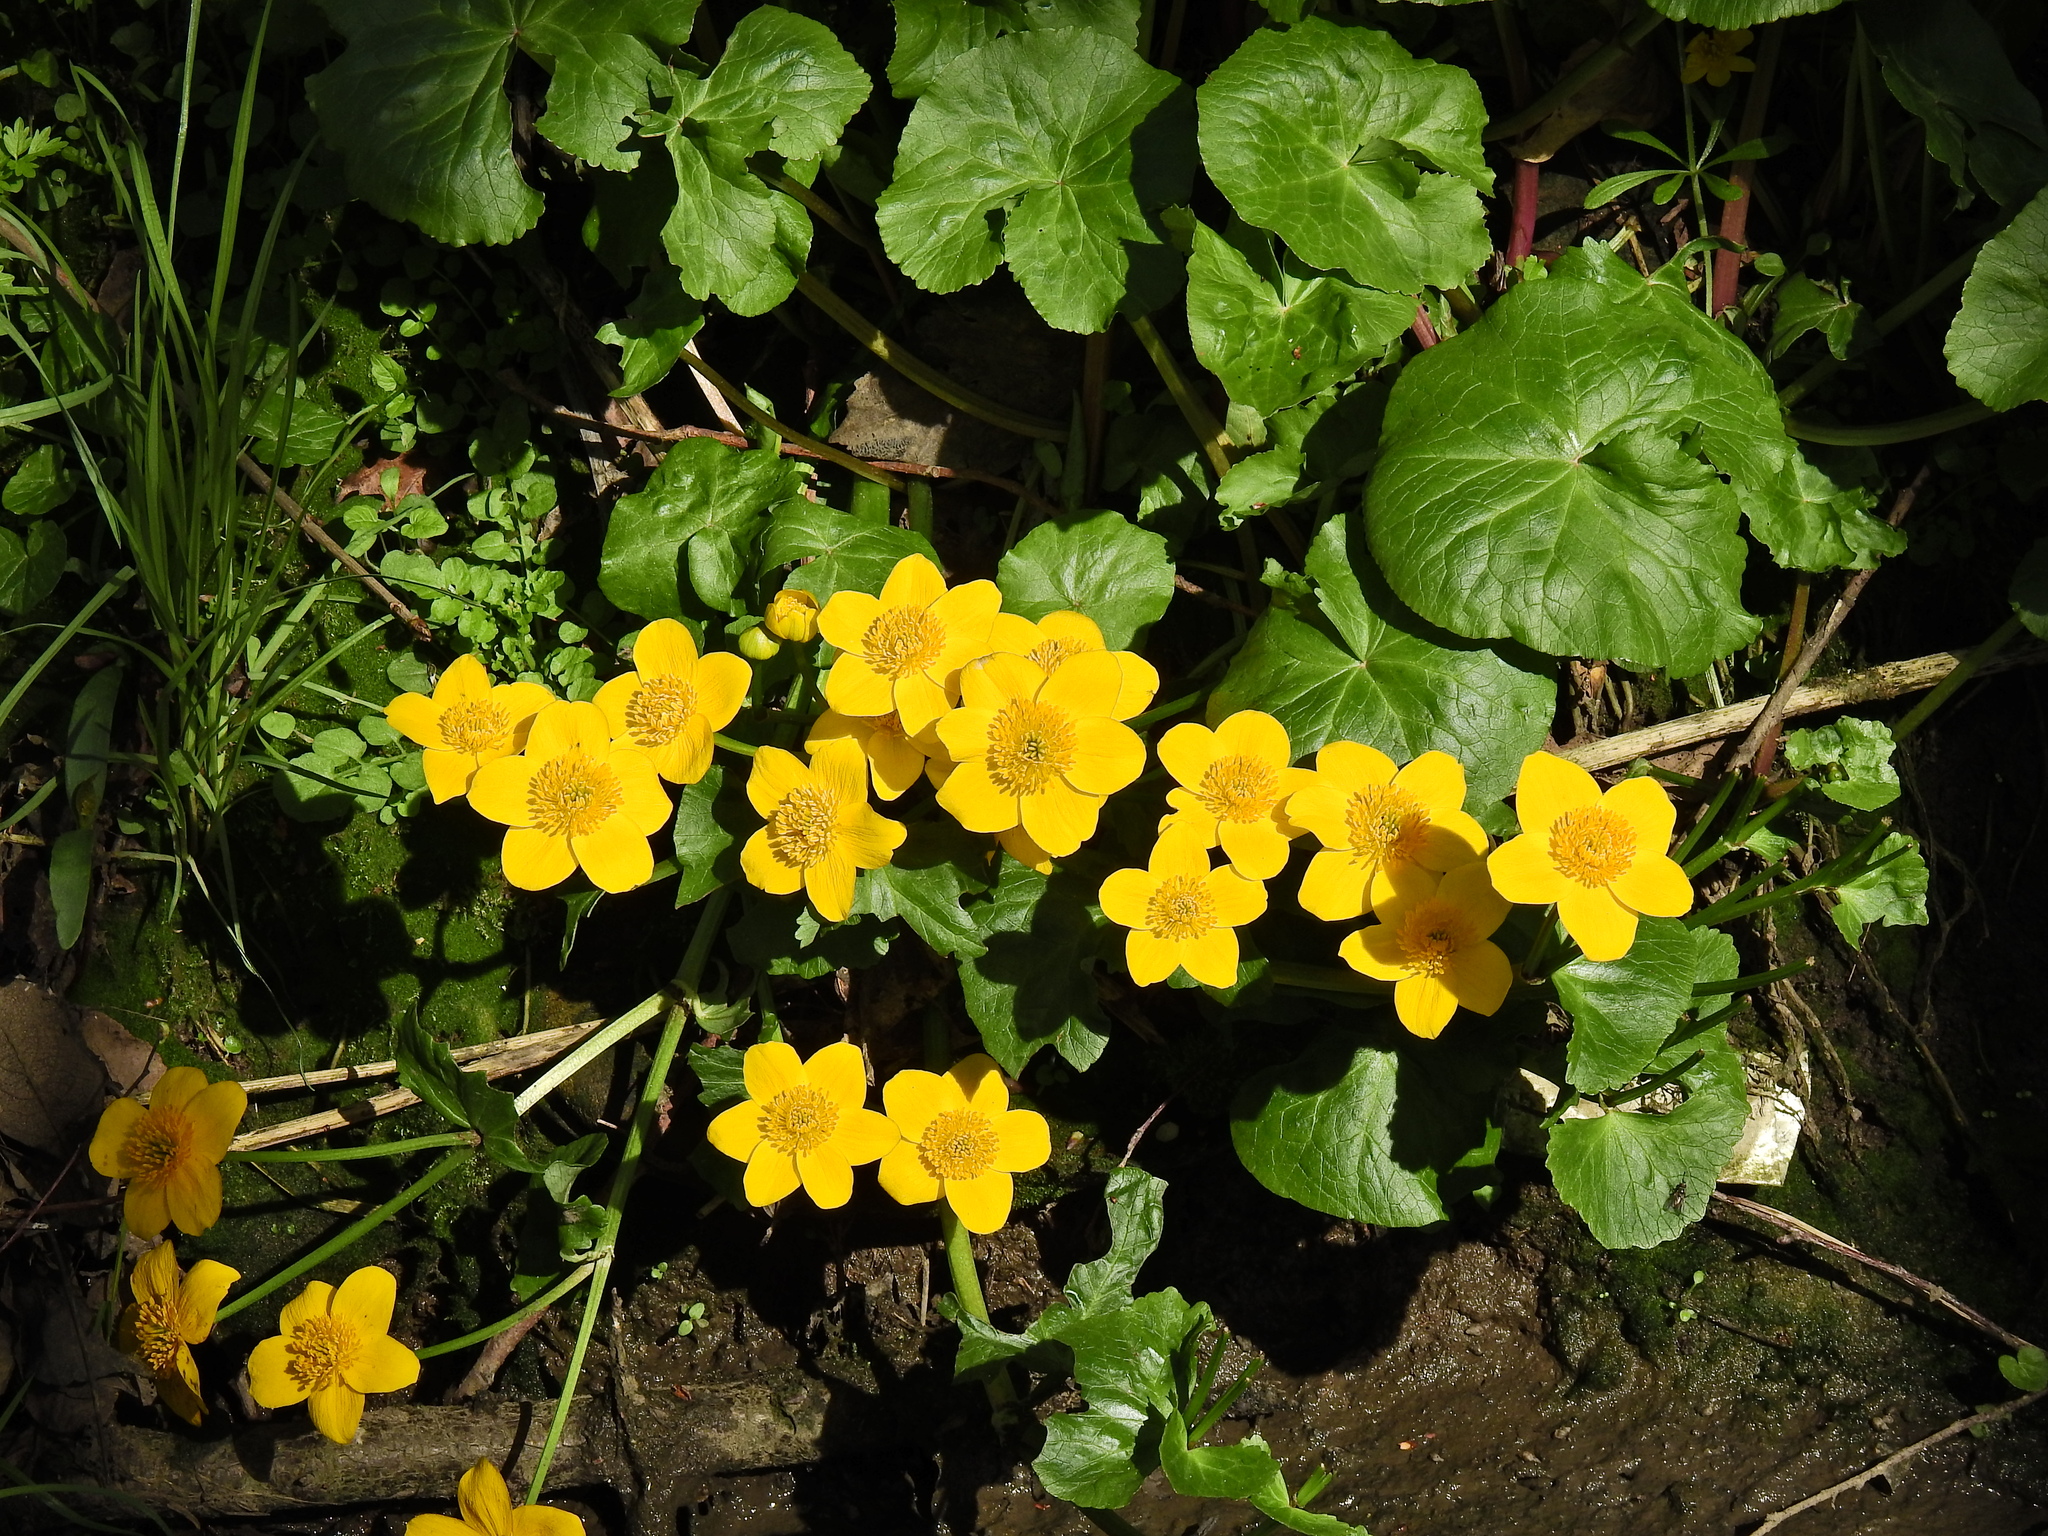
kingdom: Plantae
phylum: Tracheophyta
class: Magnoliopsida
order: Ranunculales
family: Ranunculaceae
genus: Caltha
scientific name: Caltha palustris
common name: Marsh marigold
